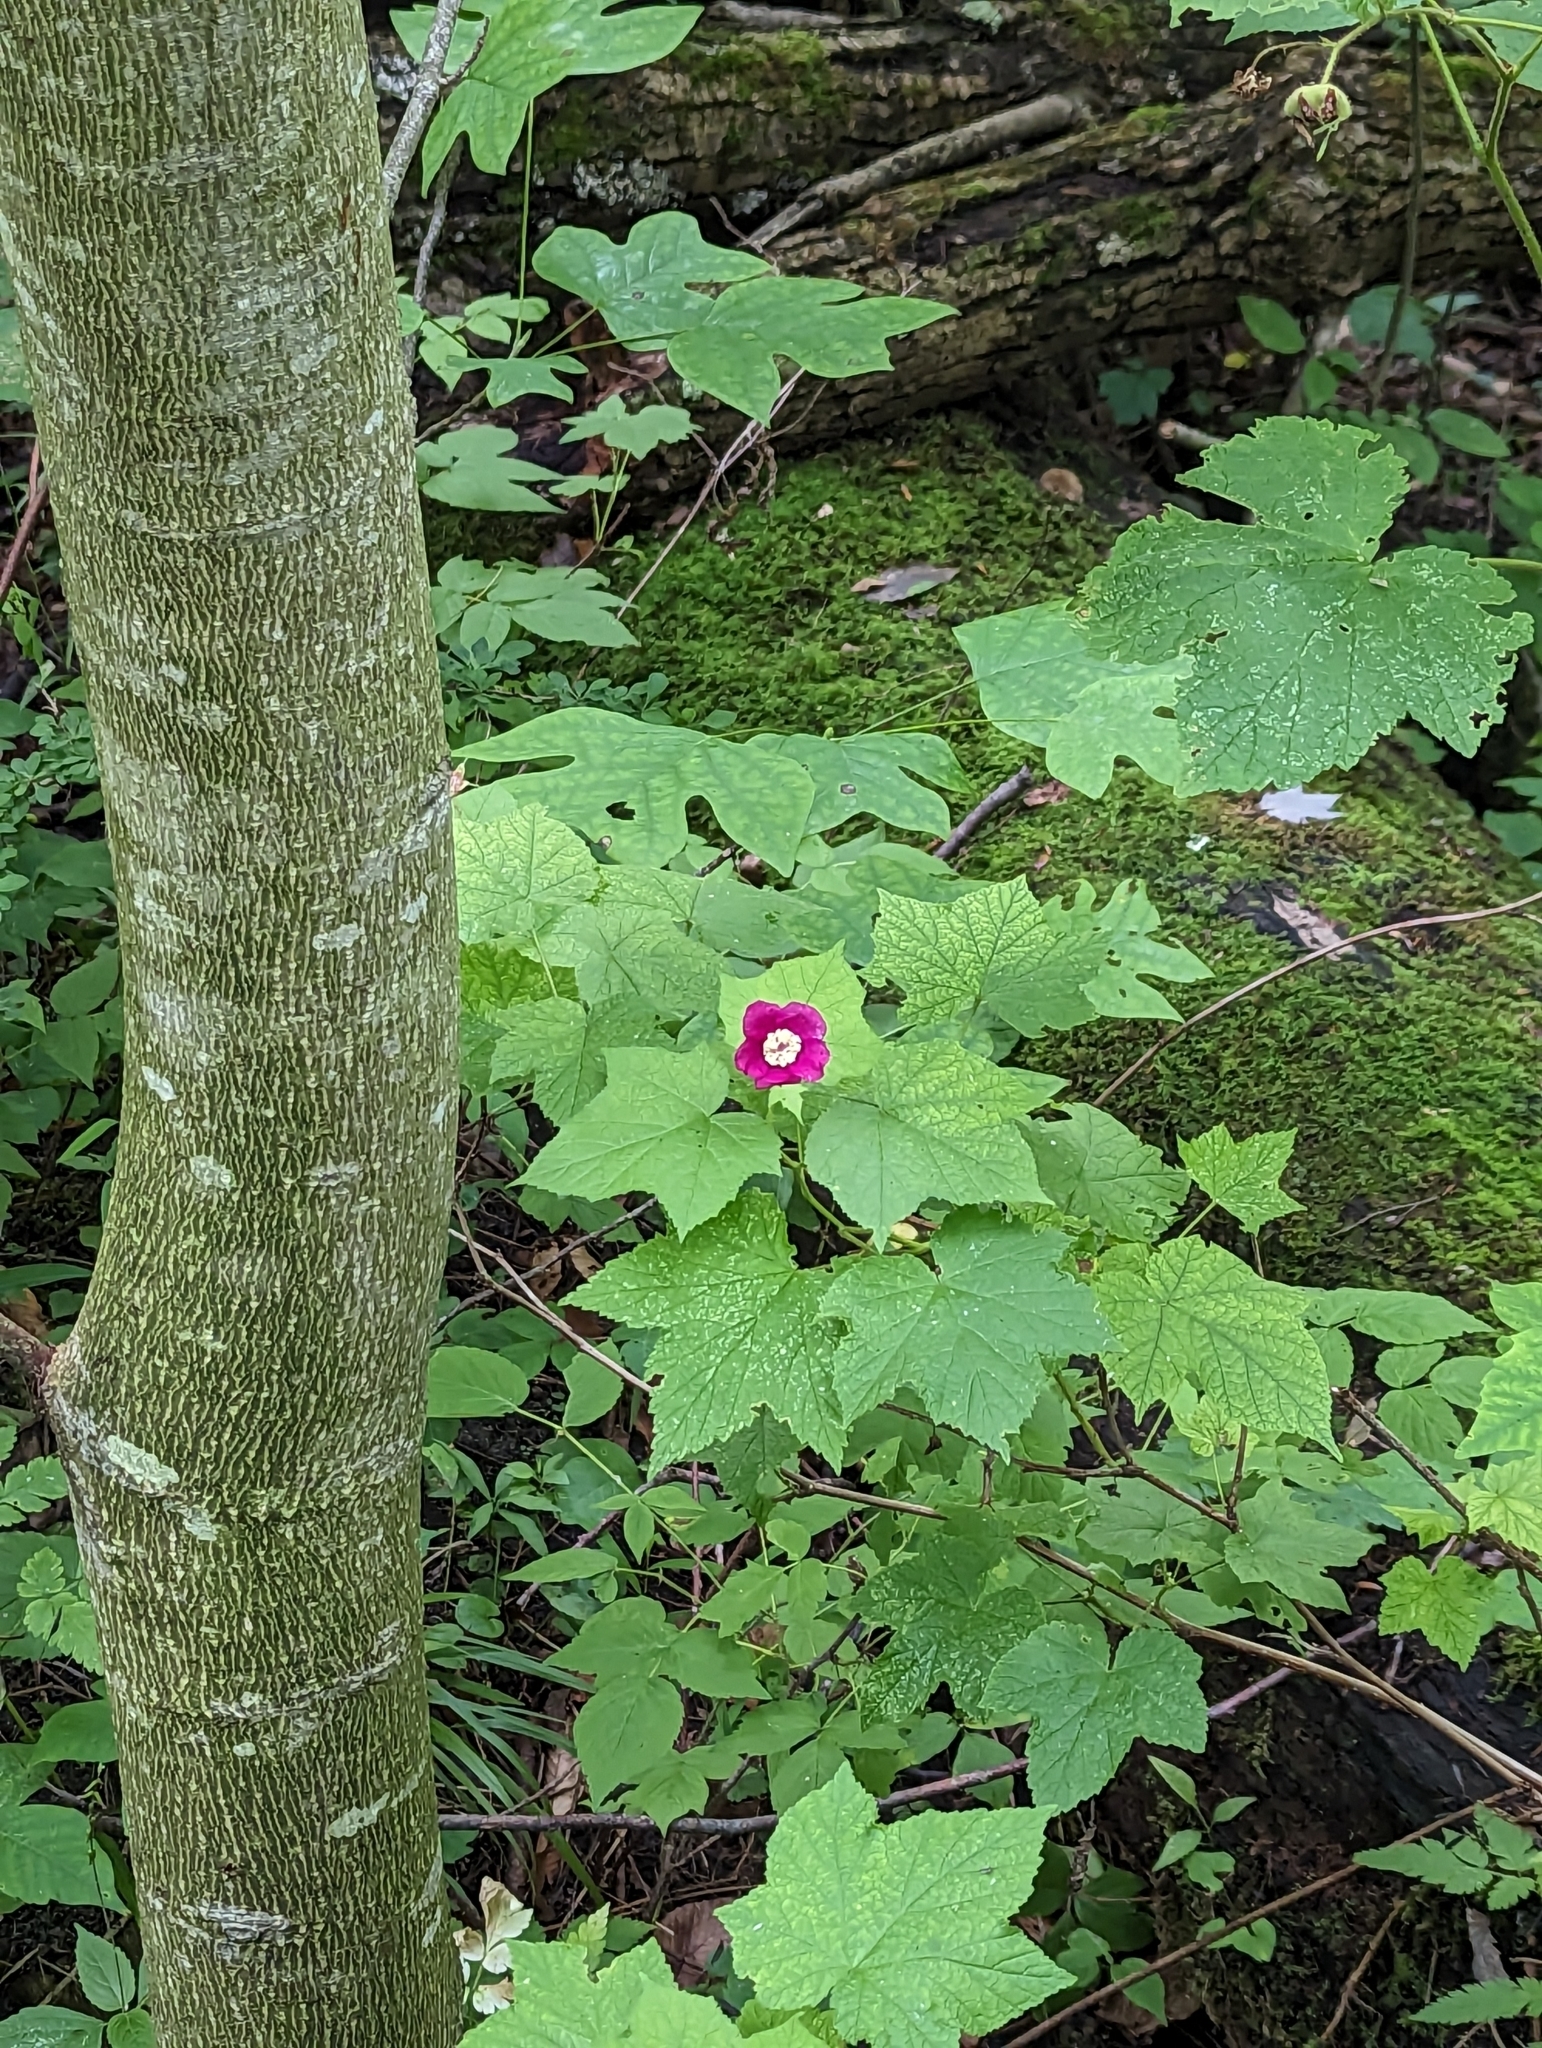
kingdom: Plantae
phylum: Tracheophyta
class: Magnoliopsida
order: Rosales
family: Rosaceae
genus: Rubus
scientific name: Rubus odoratus
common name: Purple-flowered raspberry
